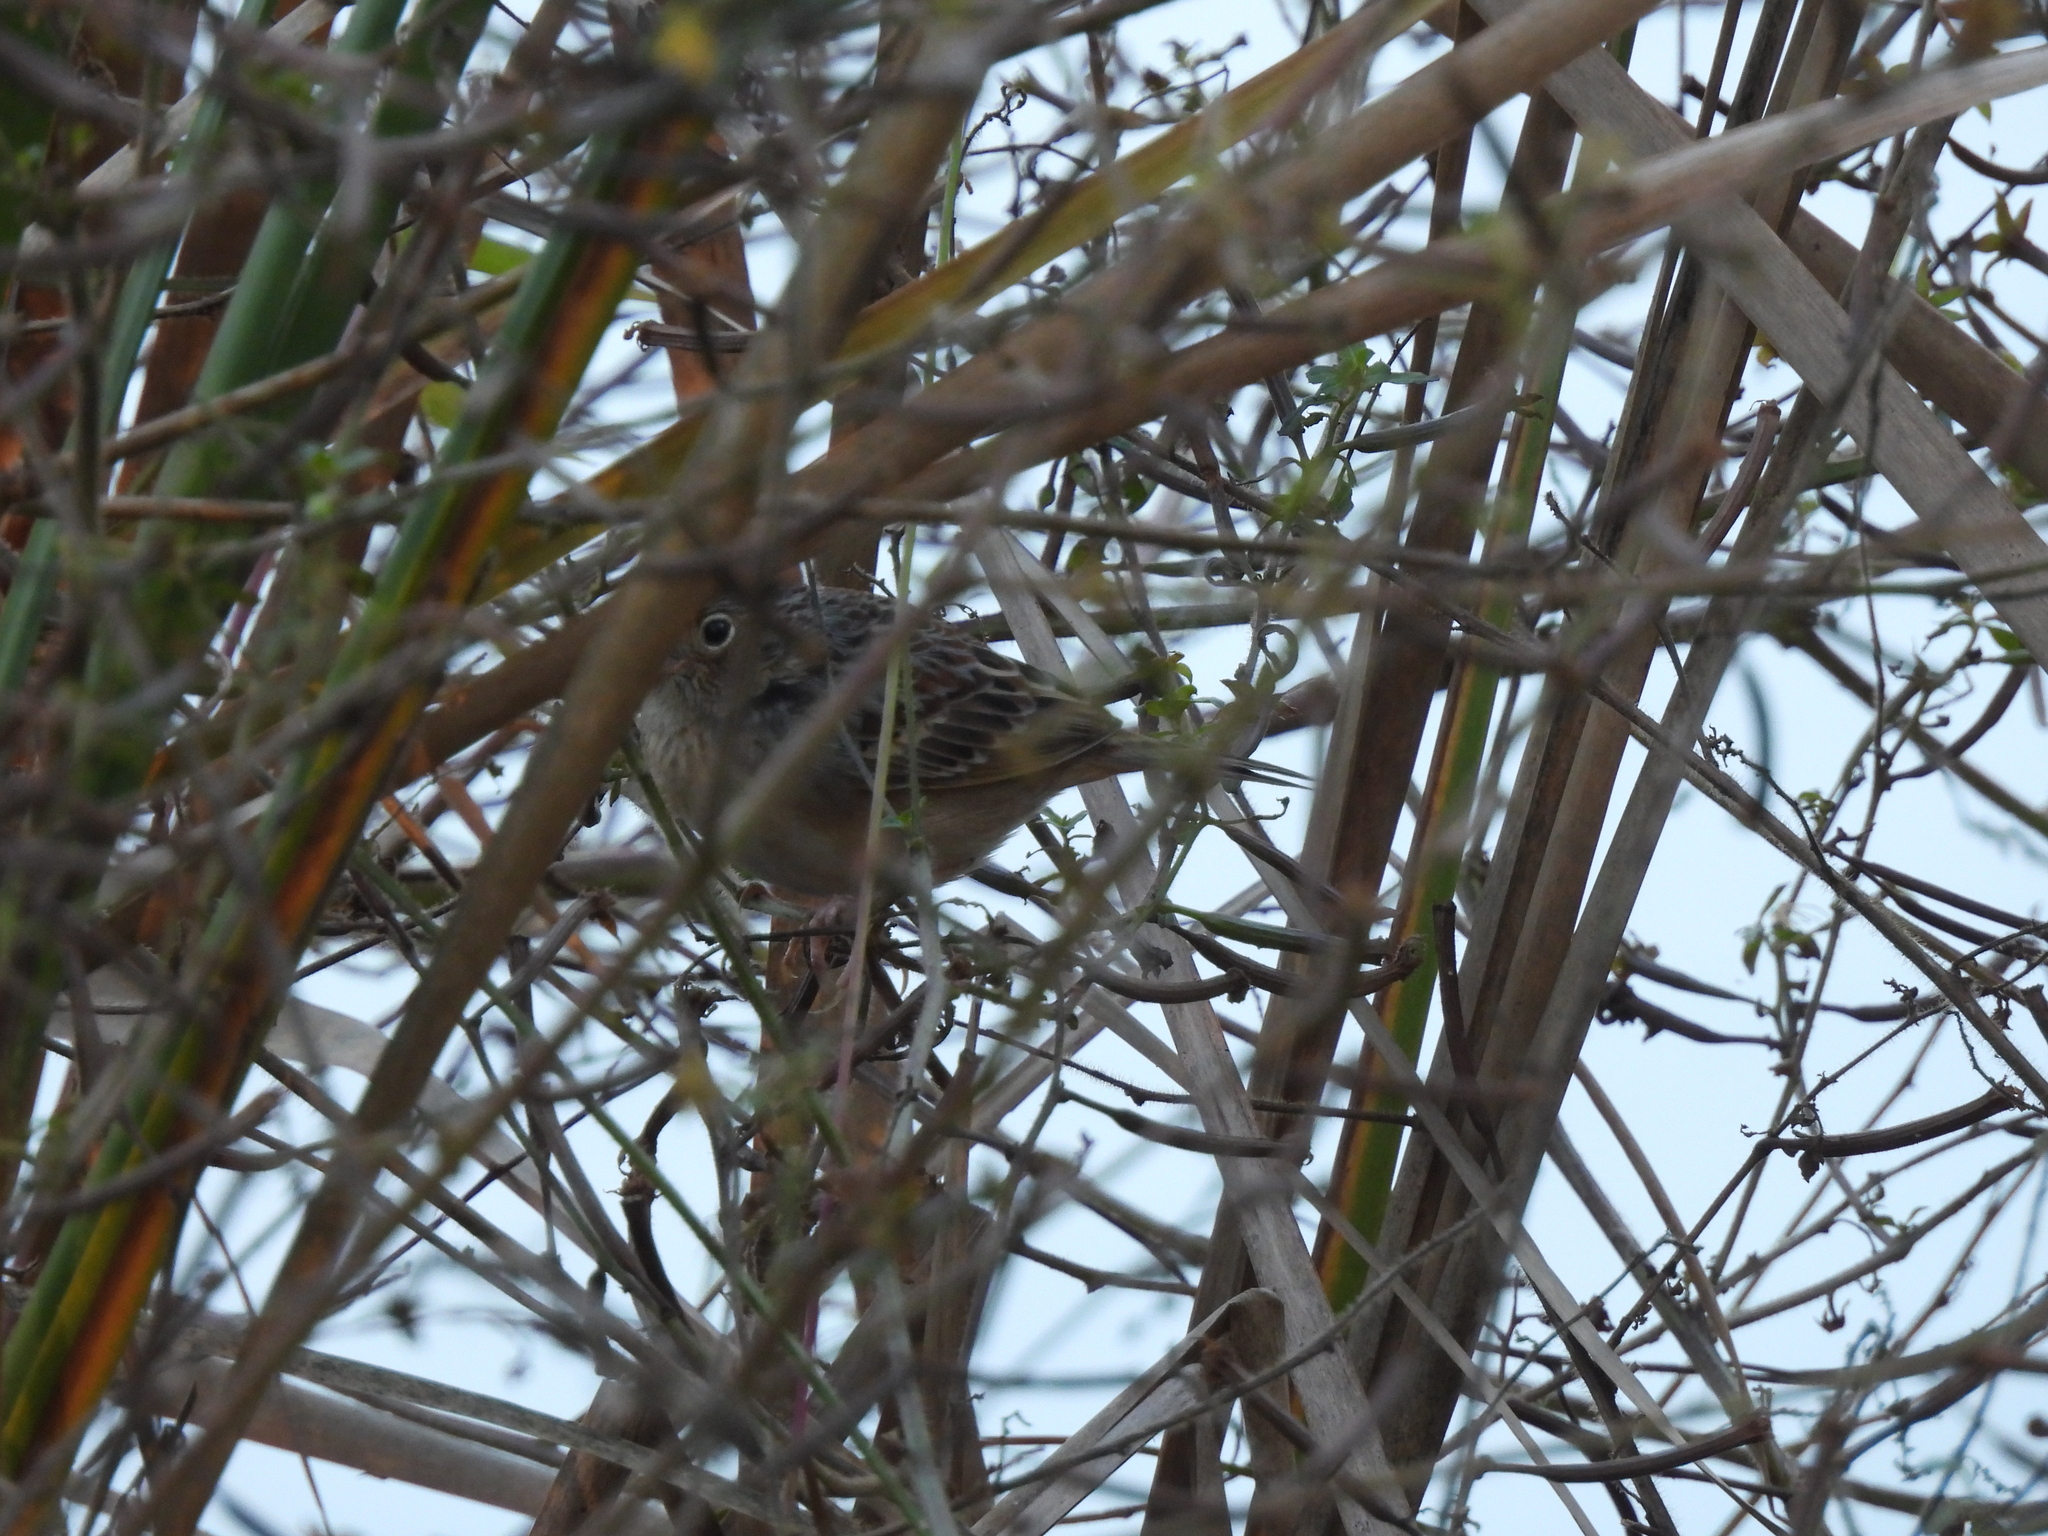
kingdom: Animalia
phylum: Chordata
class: Aves
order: Passeriformes
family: Passerellidae
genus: Ammodramus
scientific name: Ammodramus savannarum
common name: Grasshopper sparrow
